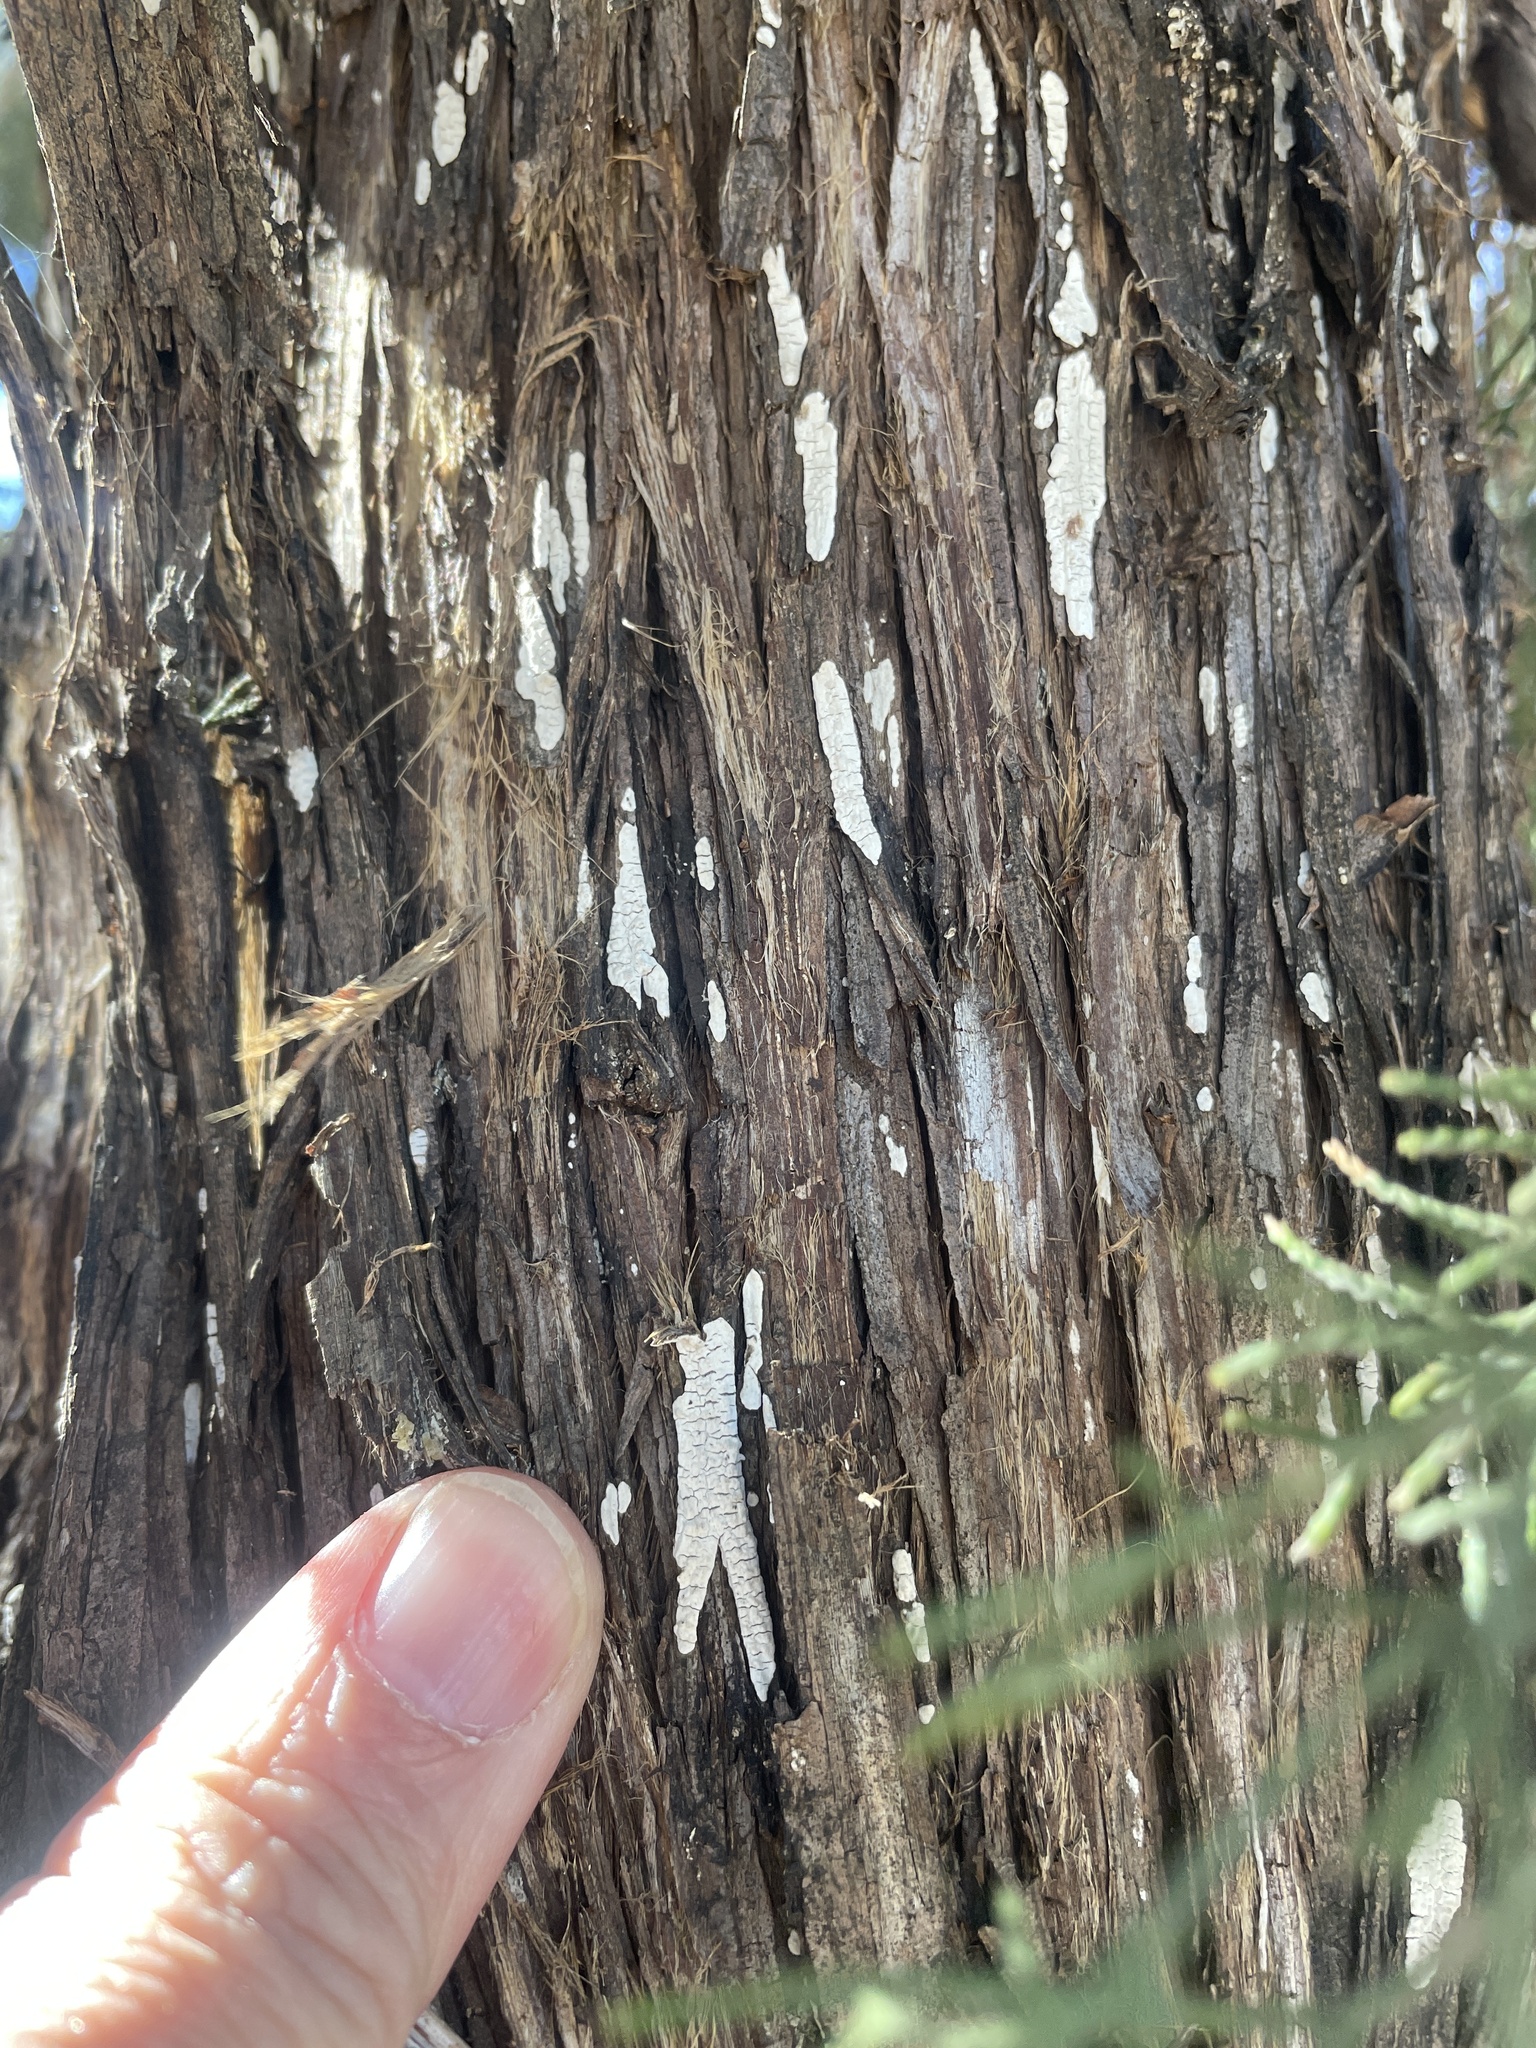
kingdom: Fungi
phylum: Basidiomycota
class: Agaricomycetes
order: Agaricales
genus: Dendrothele
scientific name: Dendrothele nivosa
